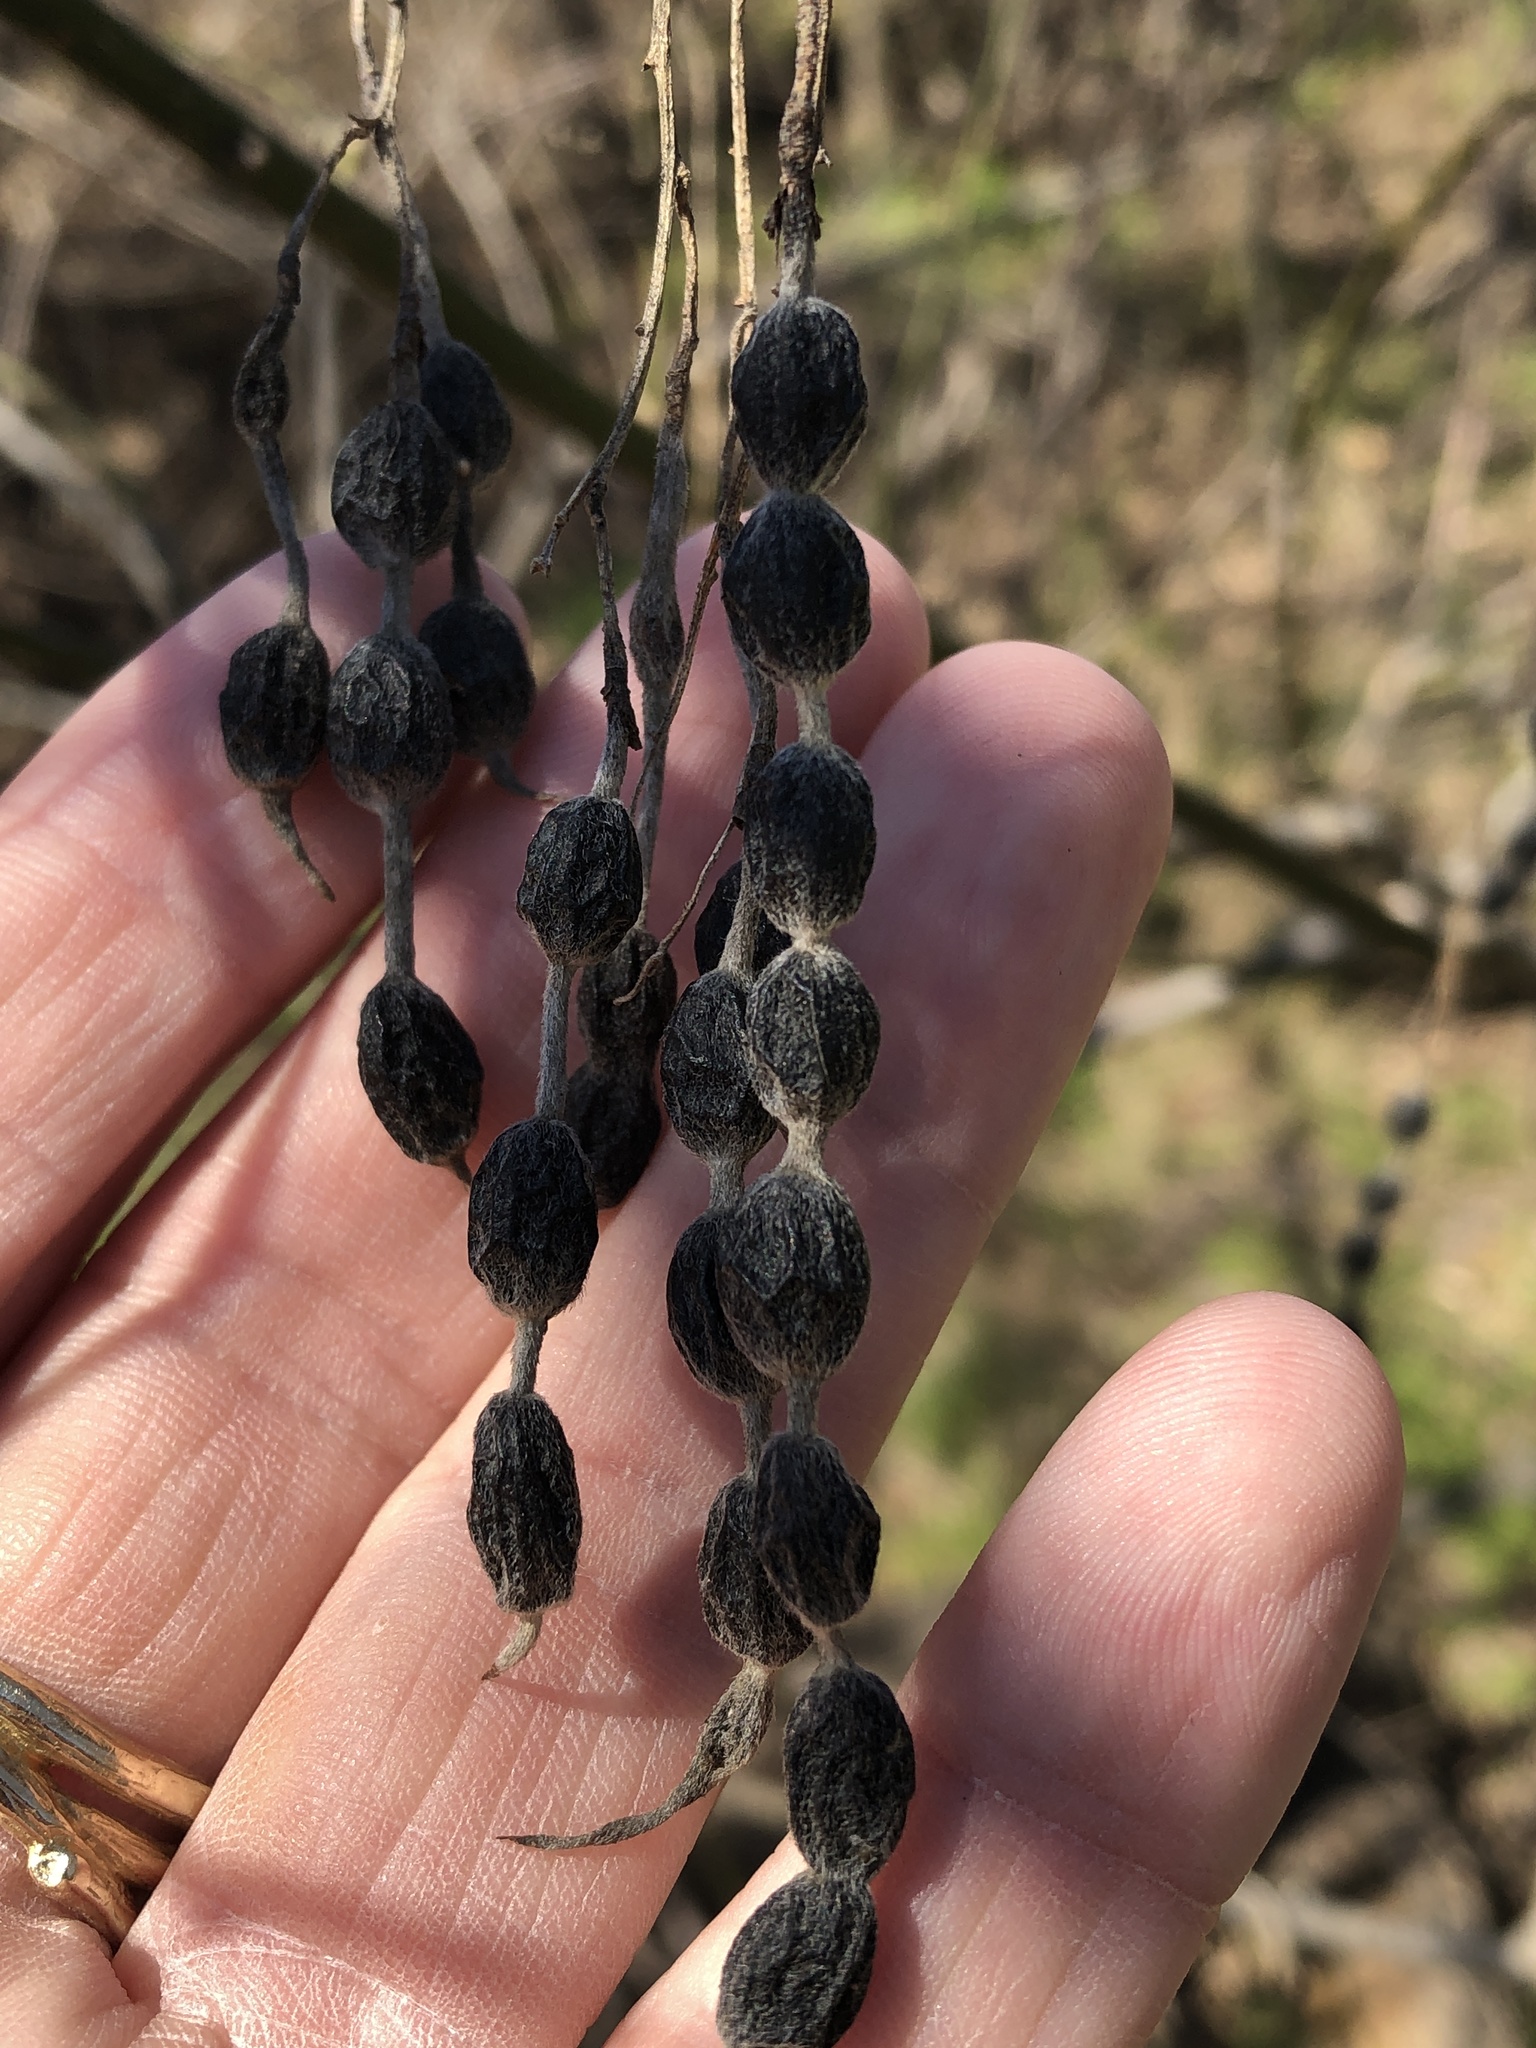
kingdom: Plantae
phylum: Tracheophyta
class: Magnoliopsida
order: Fabales
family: Fabaceae
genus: Styphnolobium
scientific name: Styphnolobium affine
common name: Texas sophora
